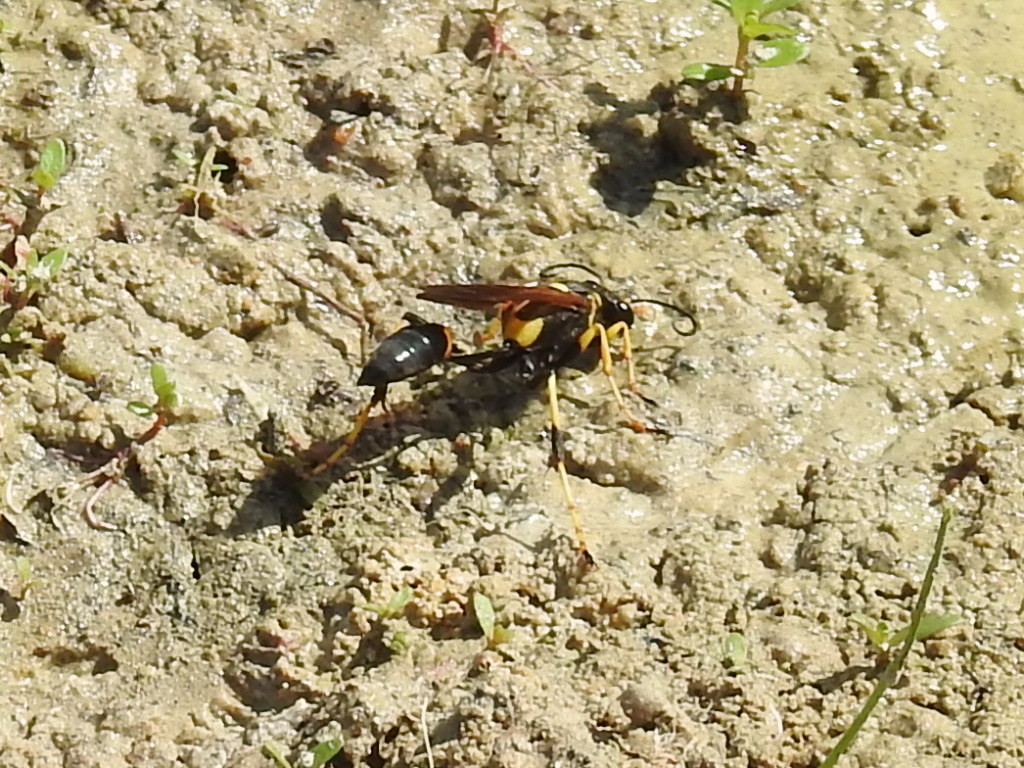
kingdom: Animalia
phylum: Arthropoda
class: Insecta
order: Hymenoptera
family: Sphecidae
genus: Sceliphron
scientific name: Sceliphron caementarium
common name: Mud dauber
